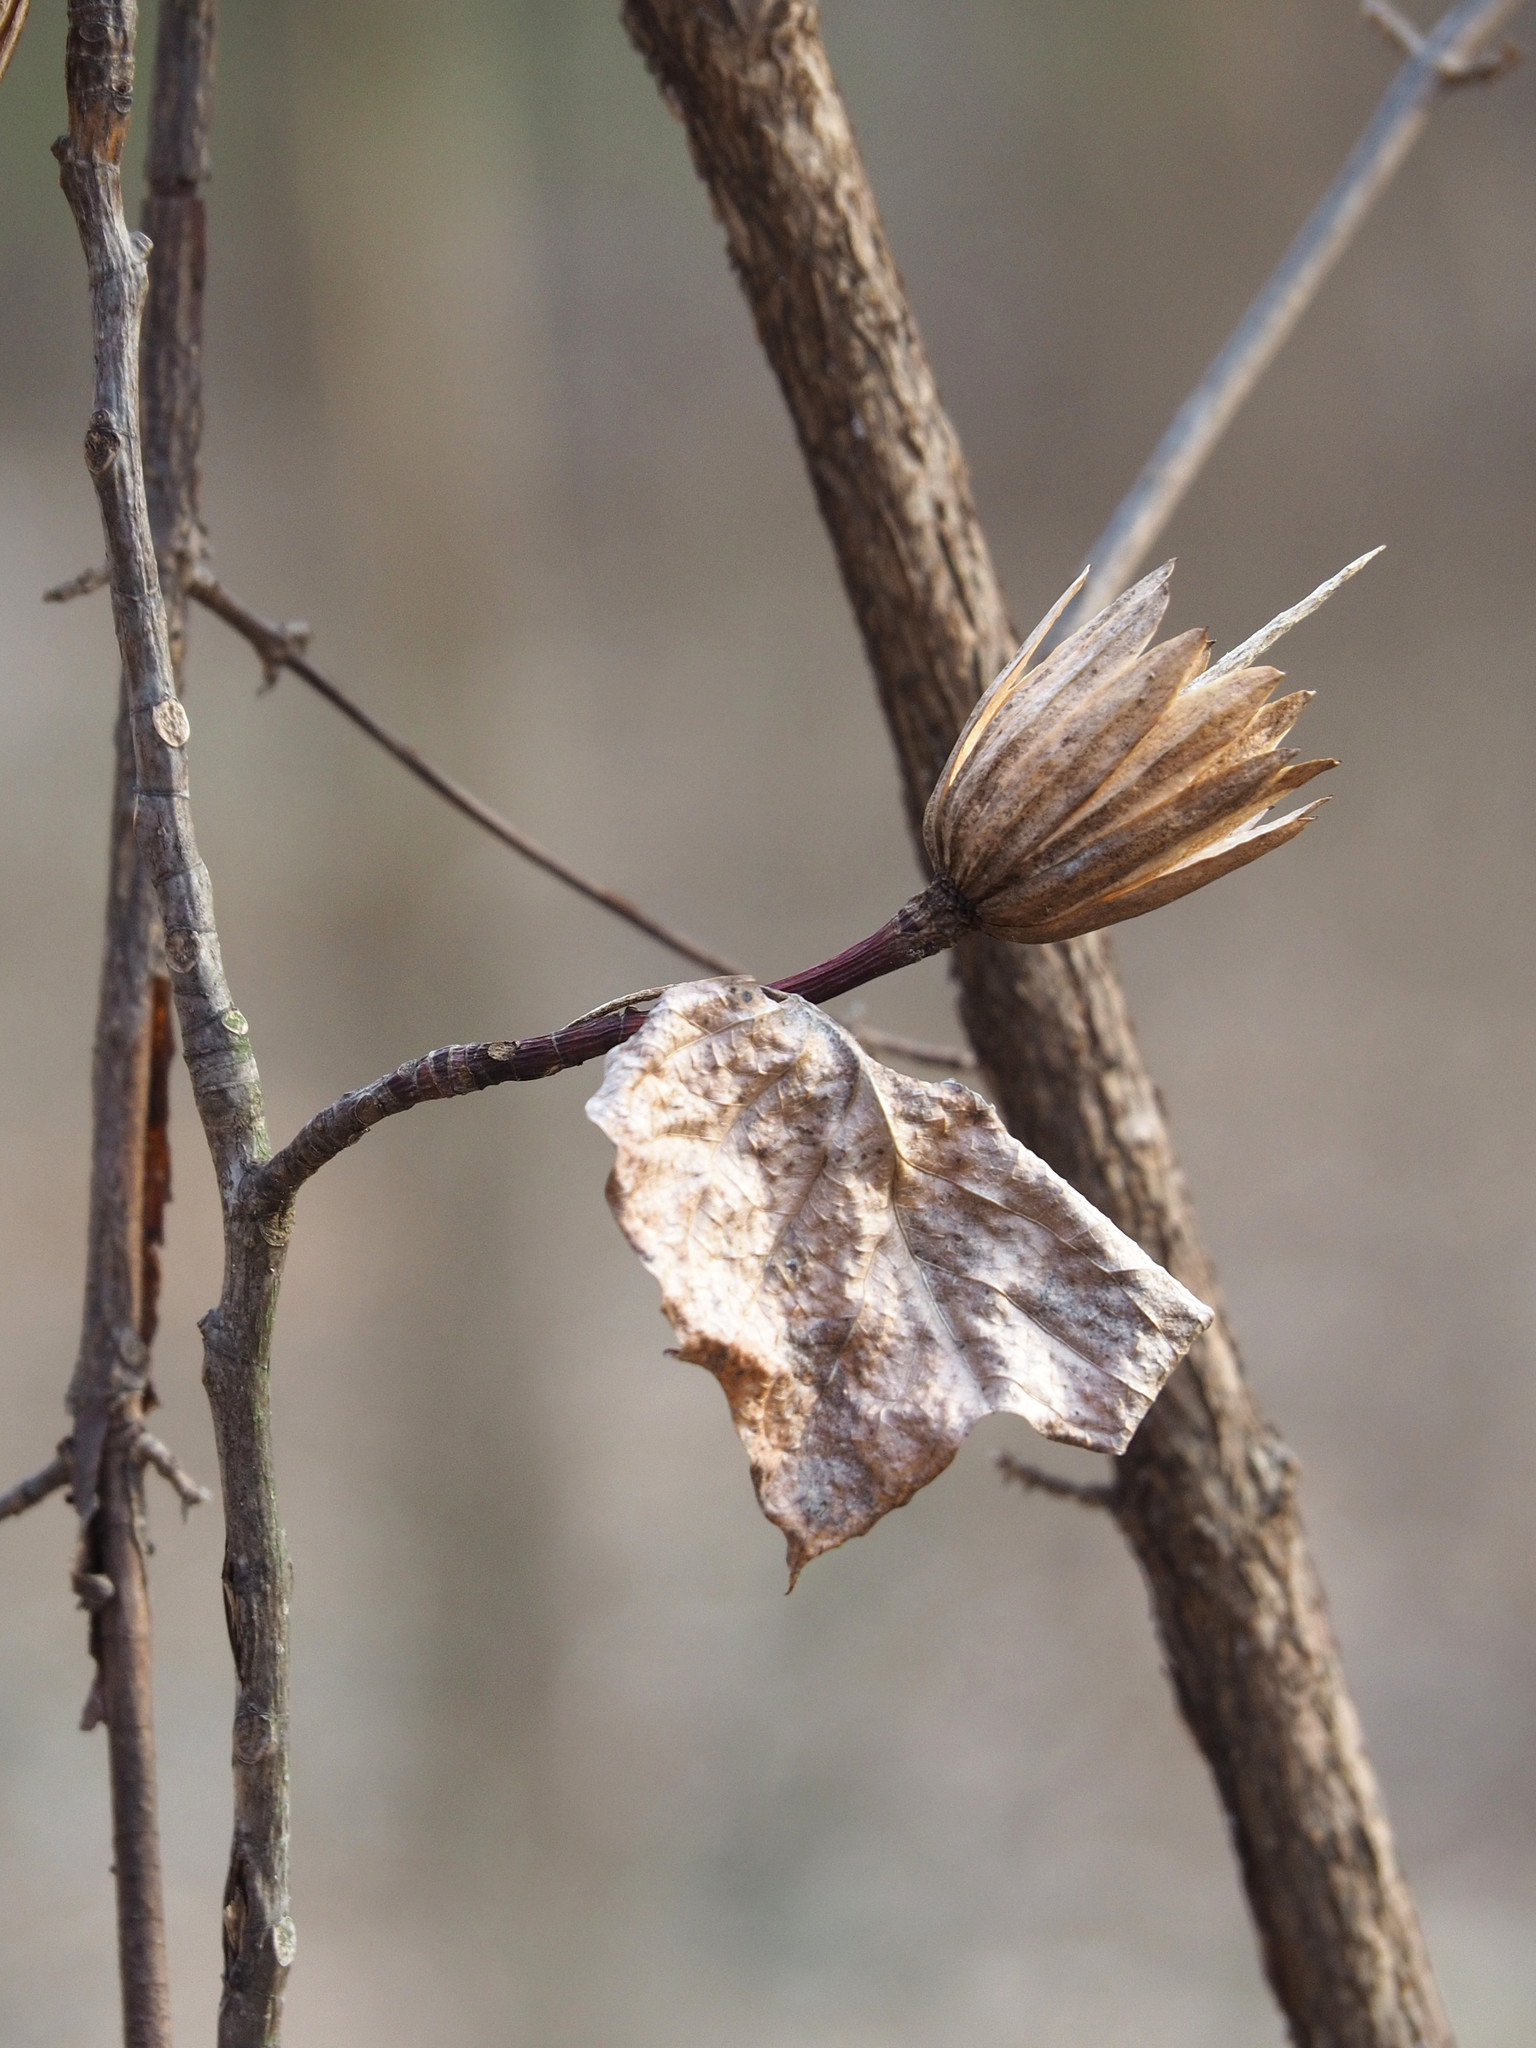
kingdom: Plantae
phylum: Tracheophyta
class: Magnoliopsida
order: Magnoliales
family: Magnoliaceae
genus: Liriodendron
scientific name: Liriodendron tulipifera
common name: Tulip tree
